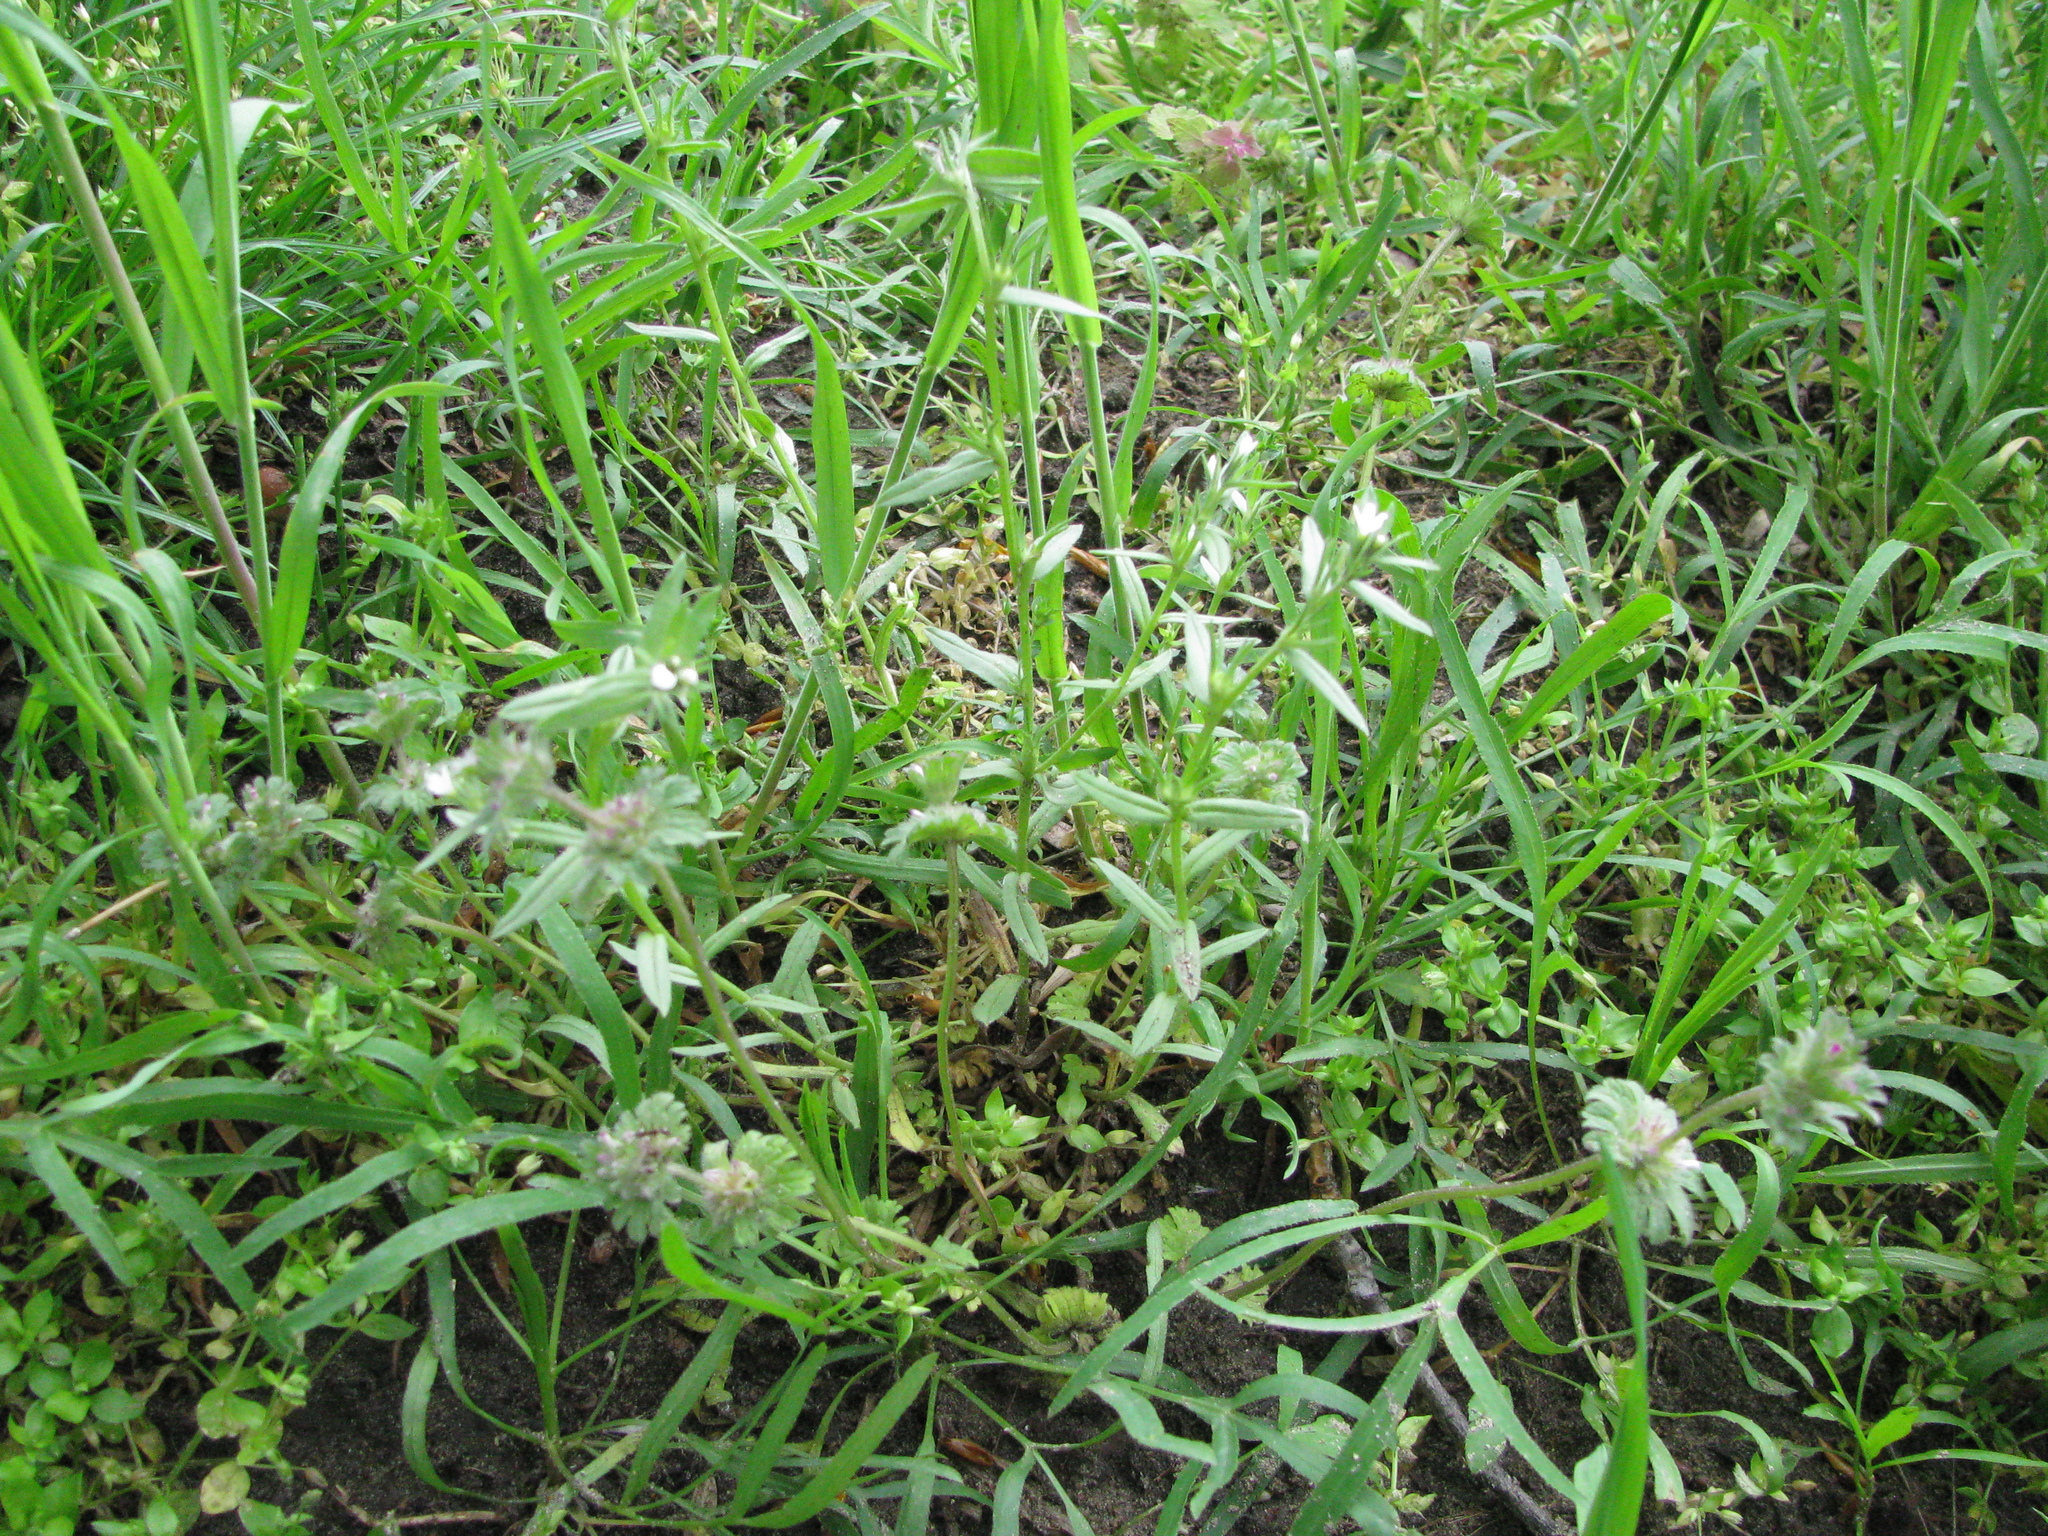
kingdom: Plantae
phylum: Tracheophyta
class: Magnoliopsida
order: Boraginales
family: Boraginaceae
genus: Buglossoides
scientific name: Buglossoides arvensis
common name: Corn gromwell
